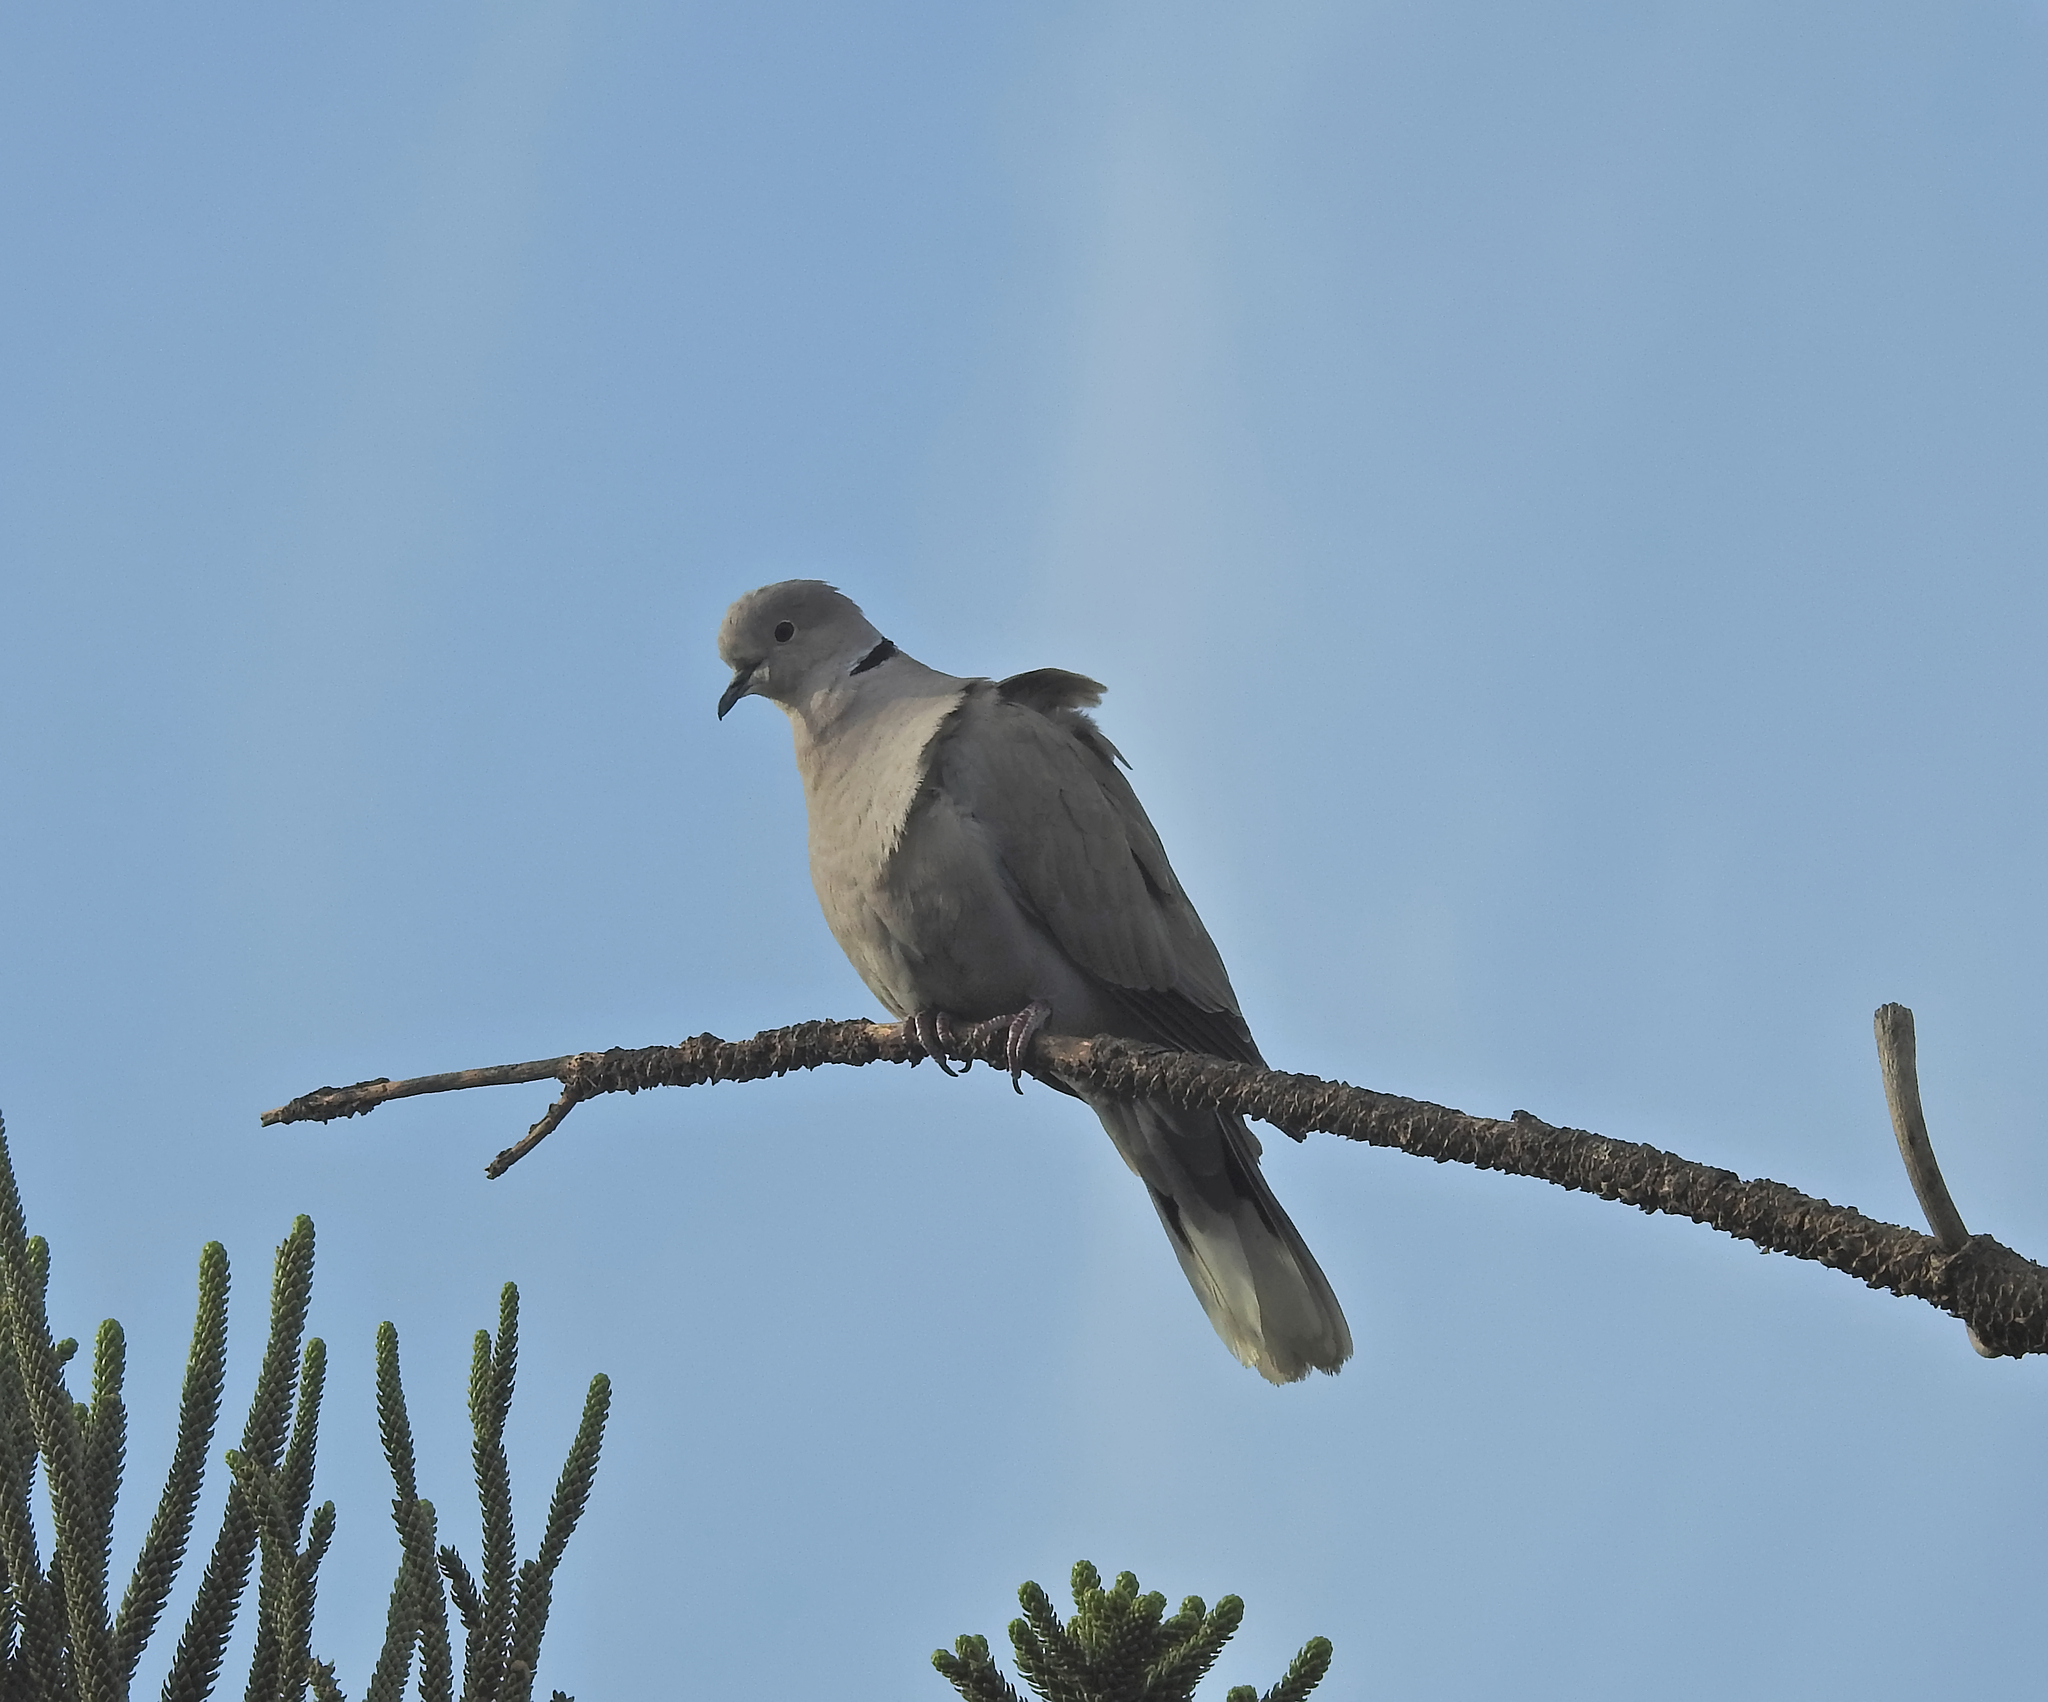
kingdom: Animalia
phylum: Chordata
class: Aves
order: Columbiformes
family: Columbidae
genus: Streptopelia
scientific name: Streptopelia decaocto
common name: Eurasian collared dove
